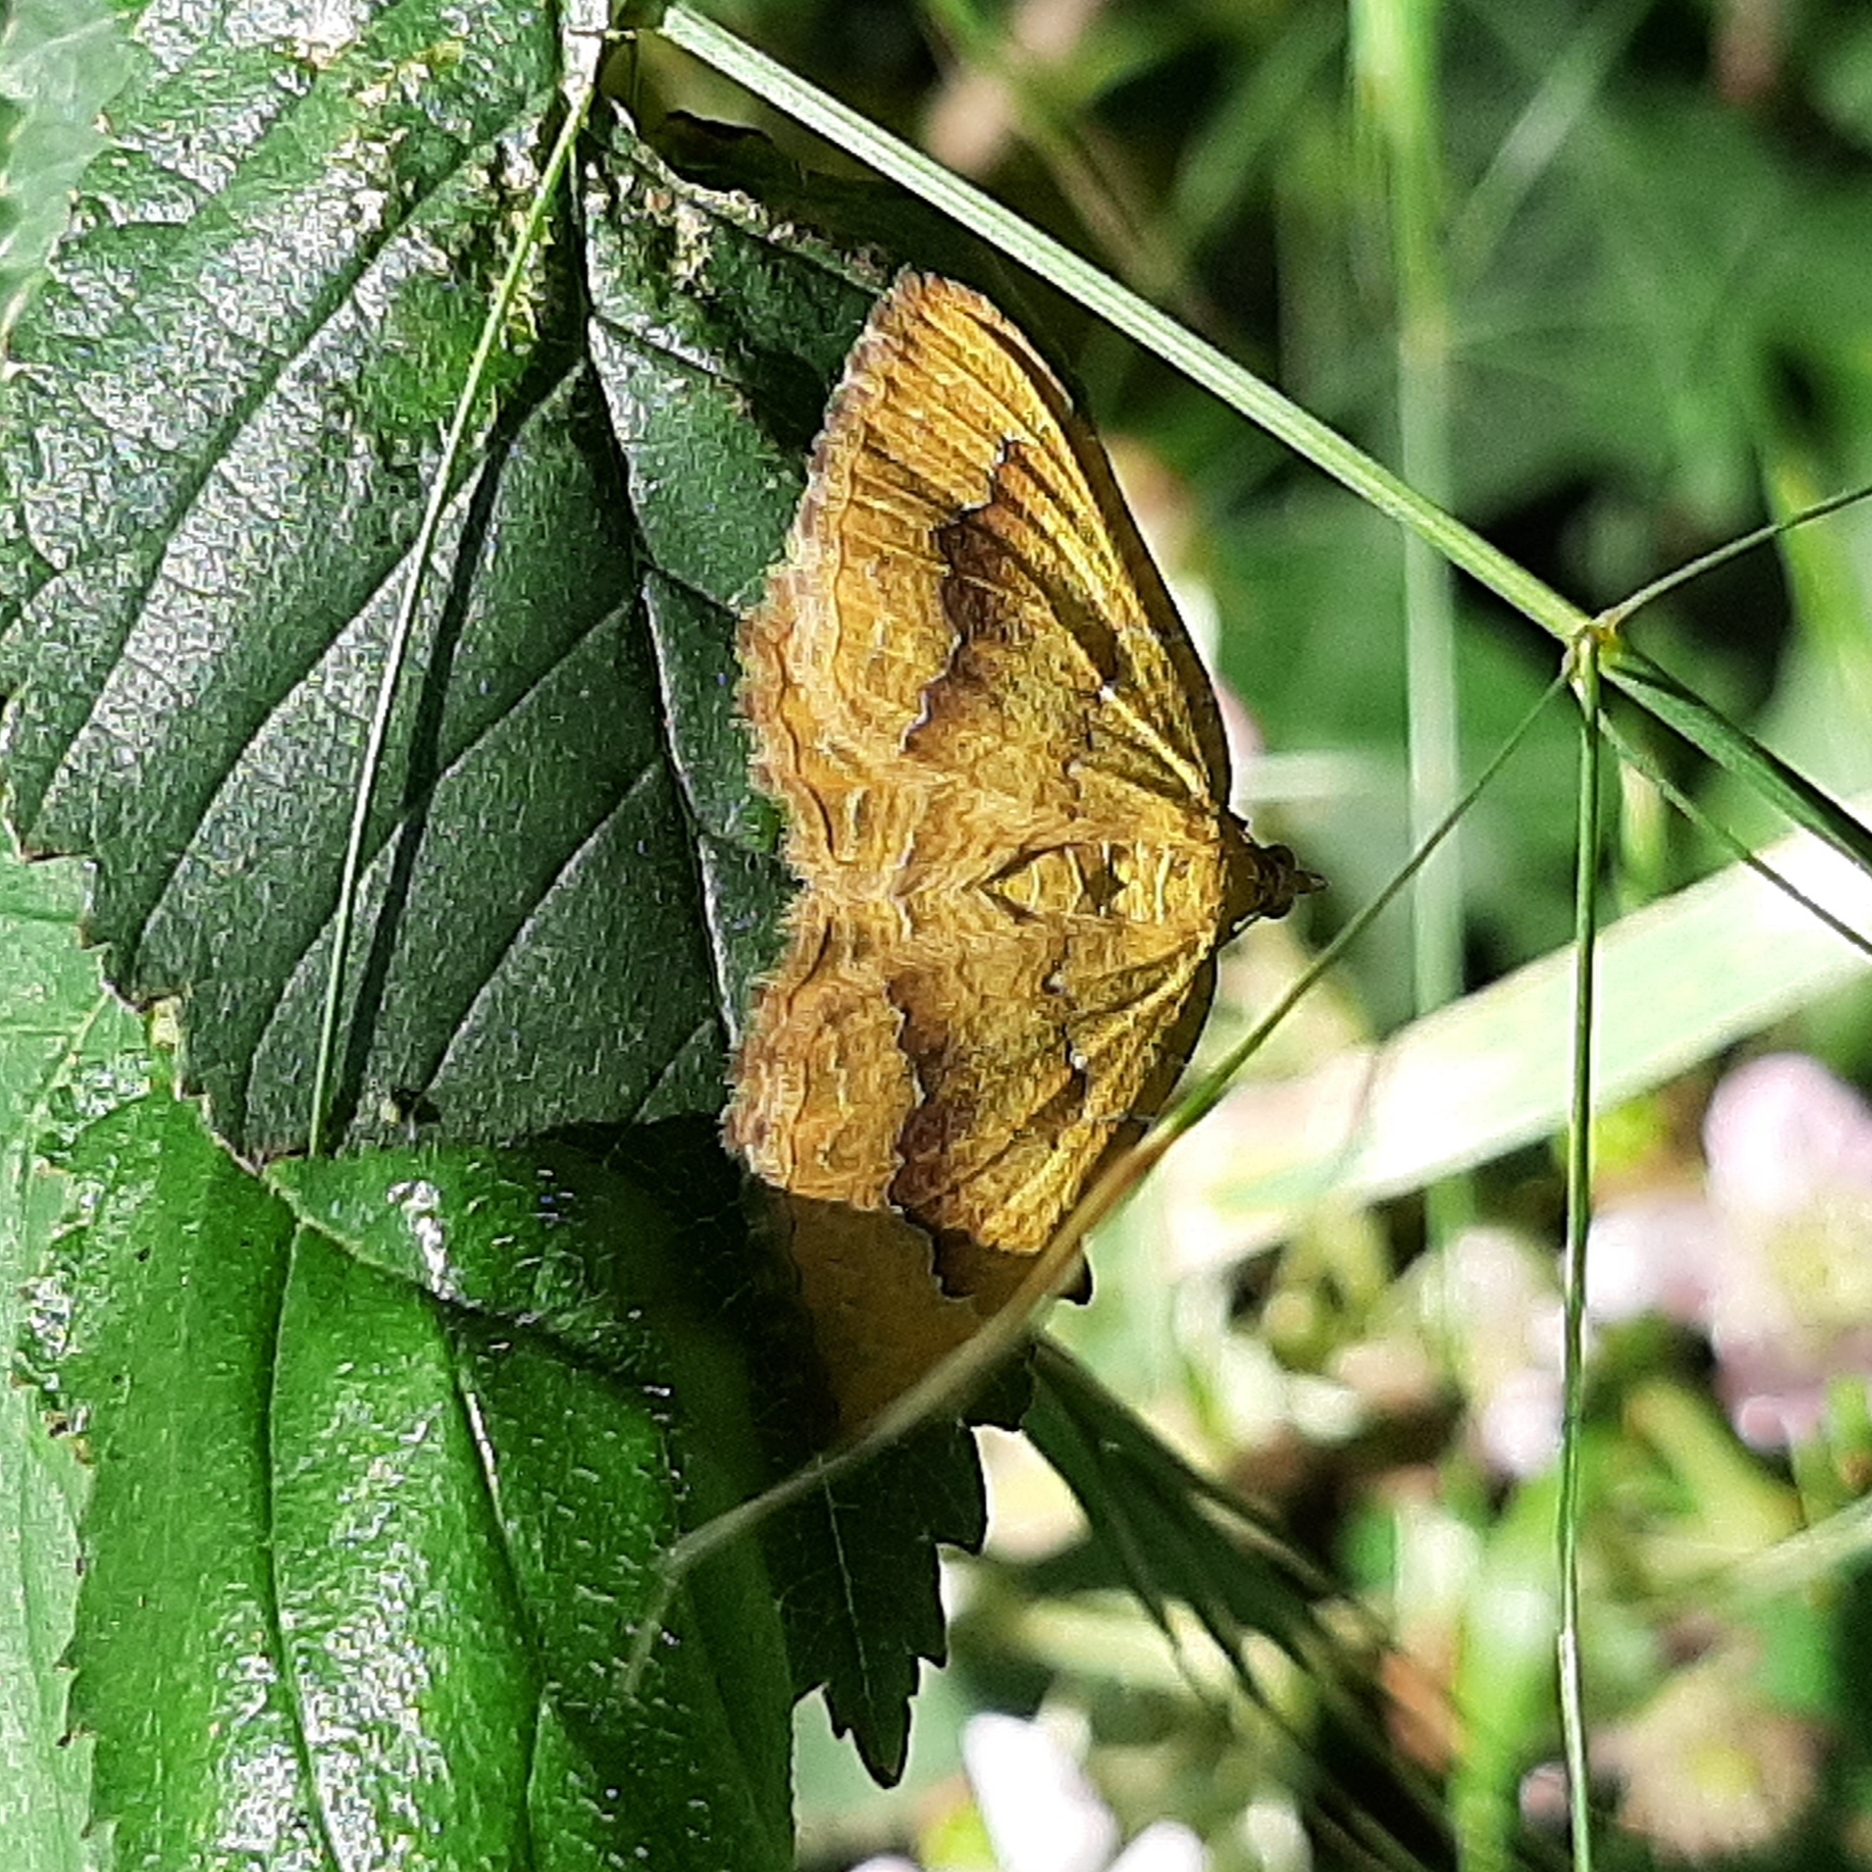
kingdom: Animalia
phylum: Arthropoda
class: Insecta
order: Lepidoptera
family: Geometridae
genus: Camptogramma
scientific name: Camptogramma bilineata
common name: Yellow shell
